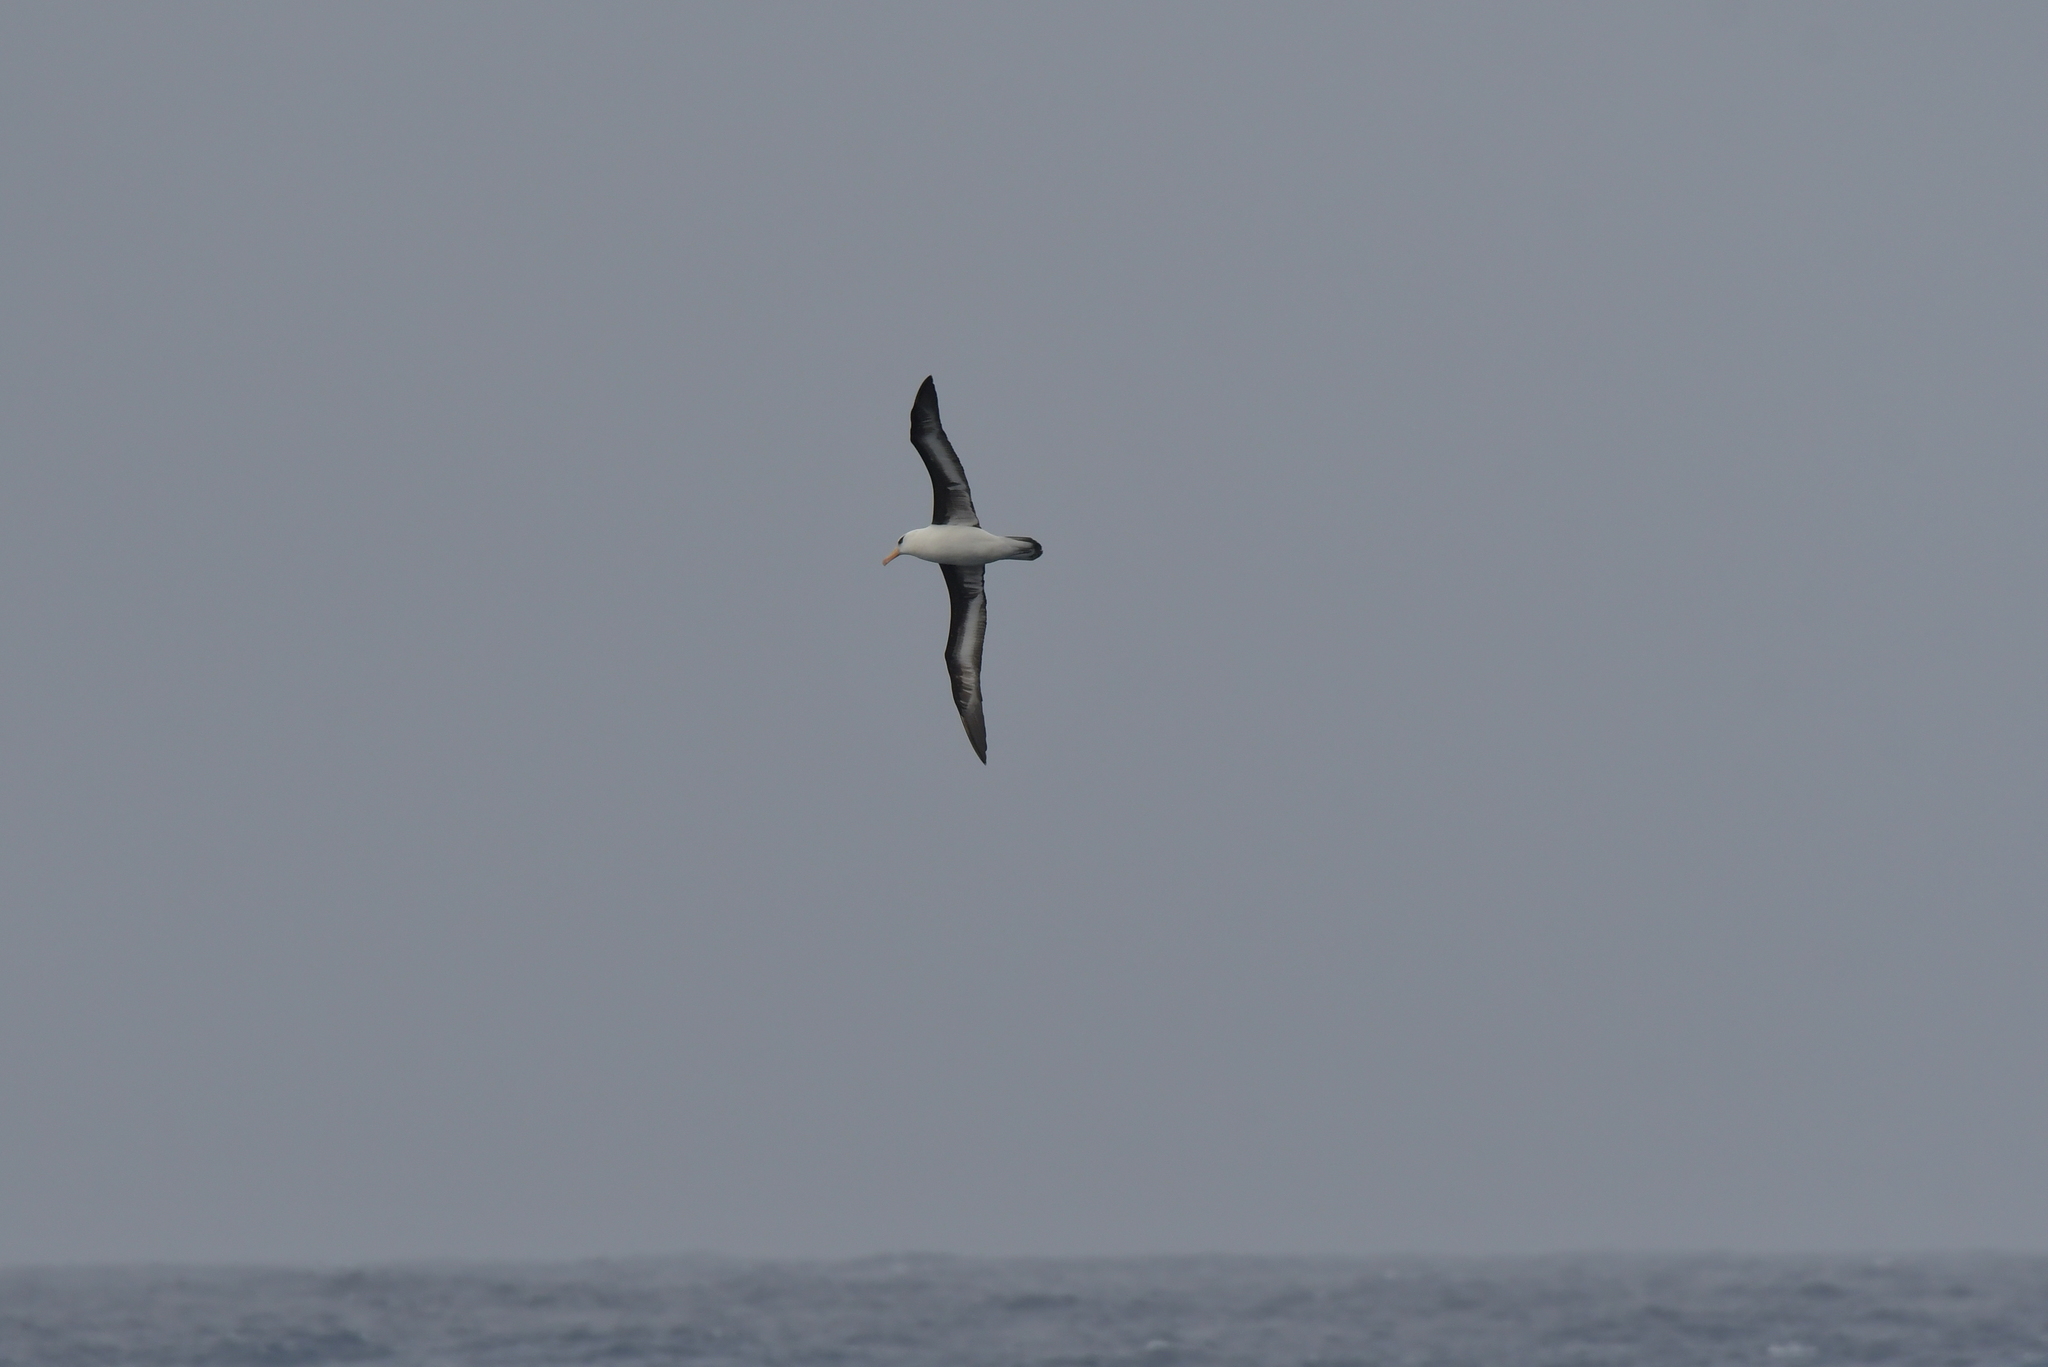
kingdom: Animalia
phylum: Chordata
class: Aves
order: Procellariiformes
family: Diomedeidae
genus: Thalassarche
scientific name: Thalassarche impavida
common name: Campbell albatross
